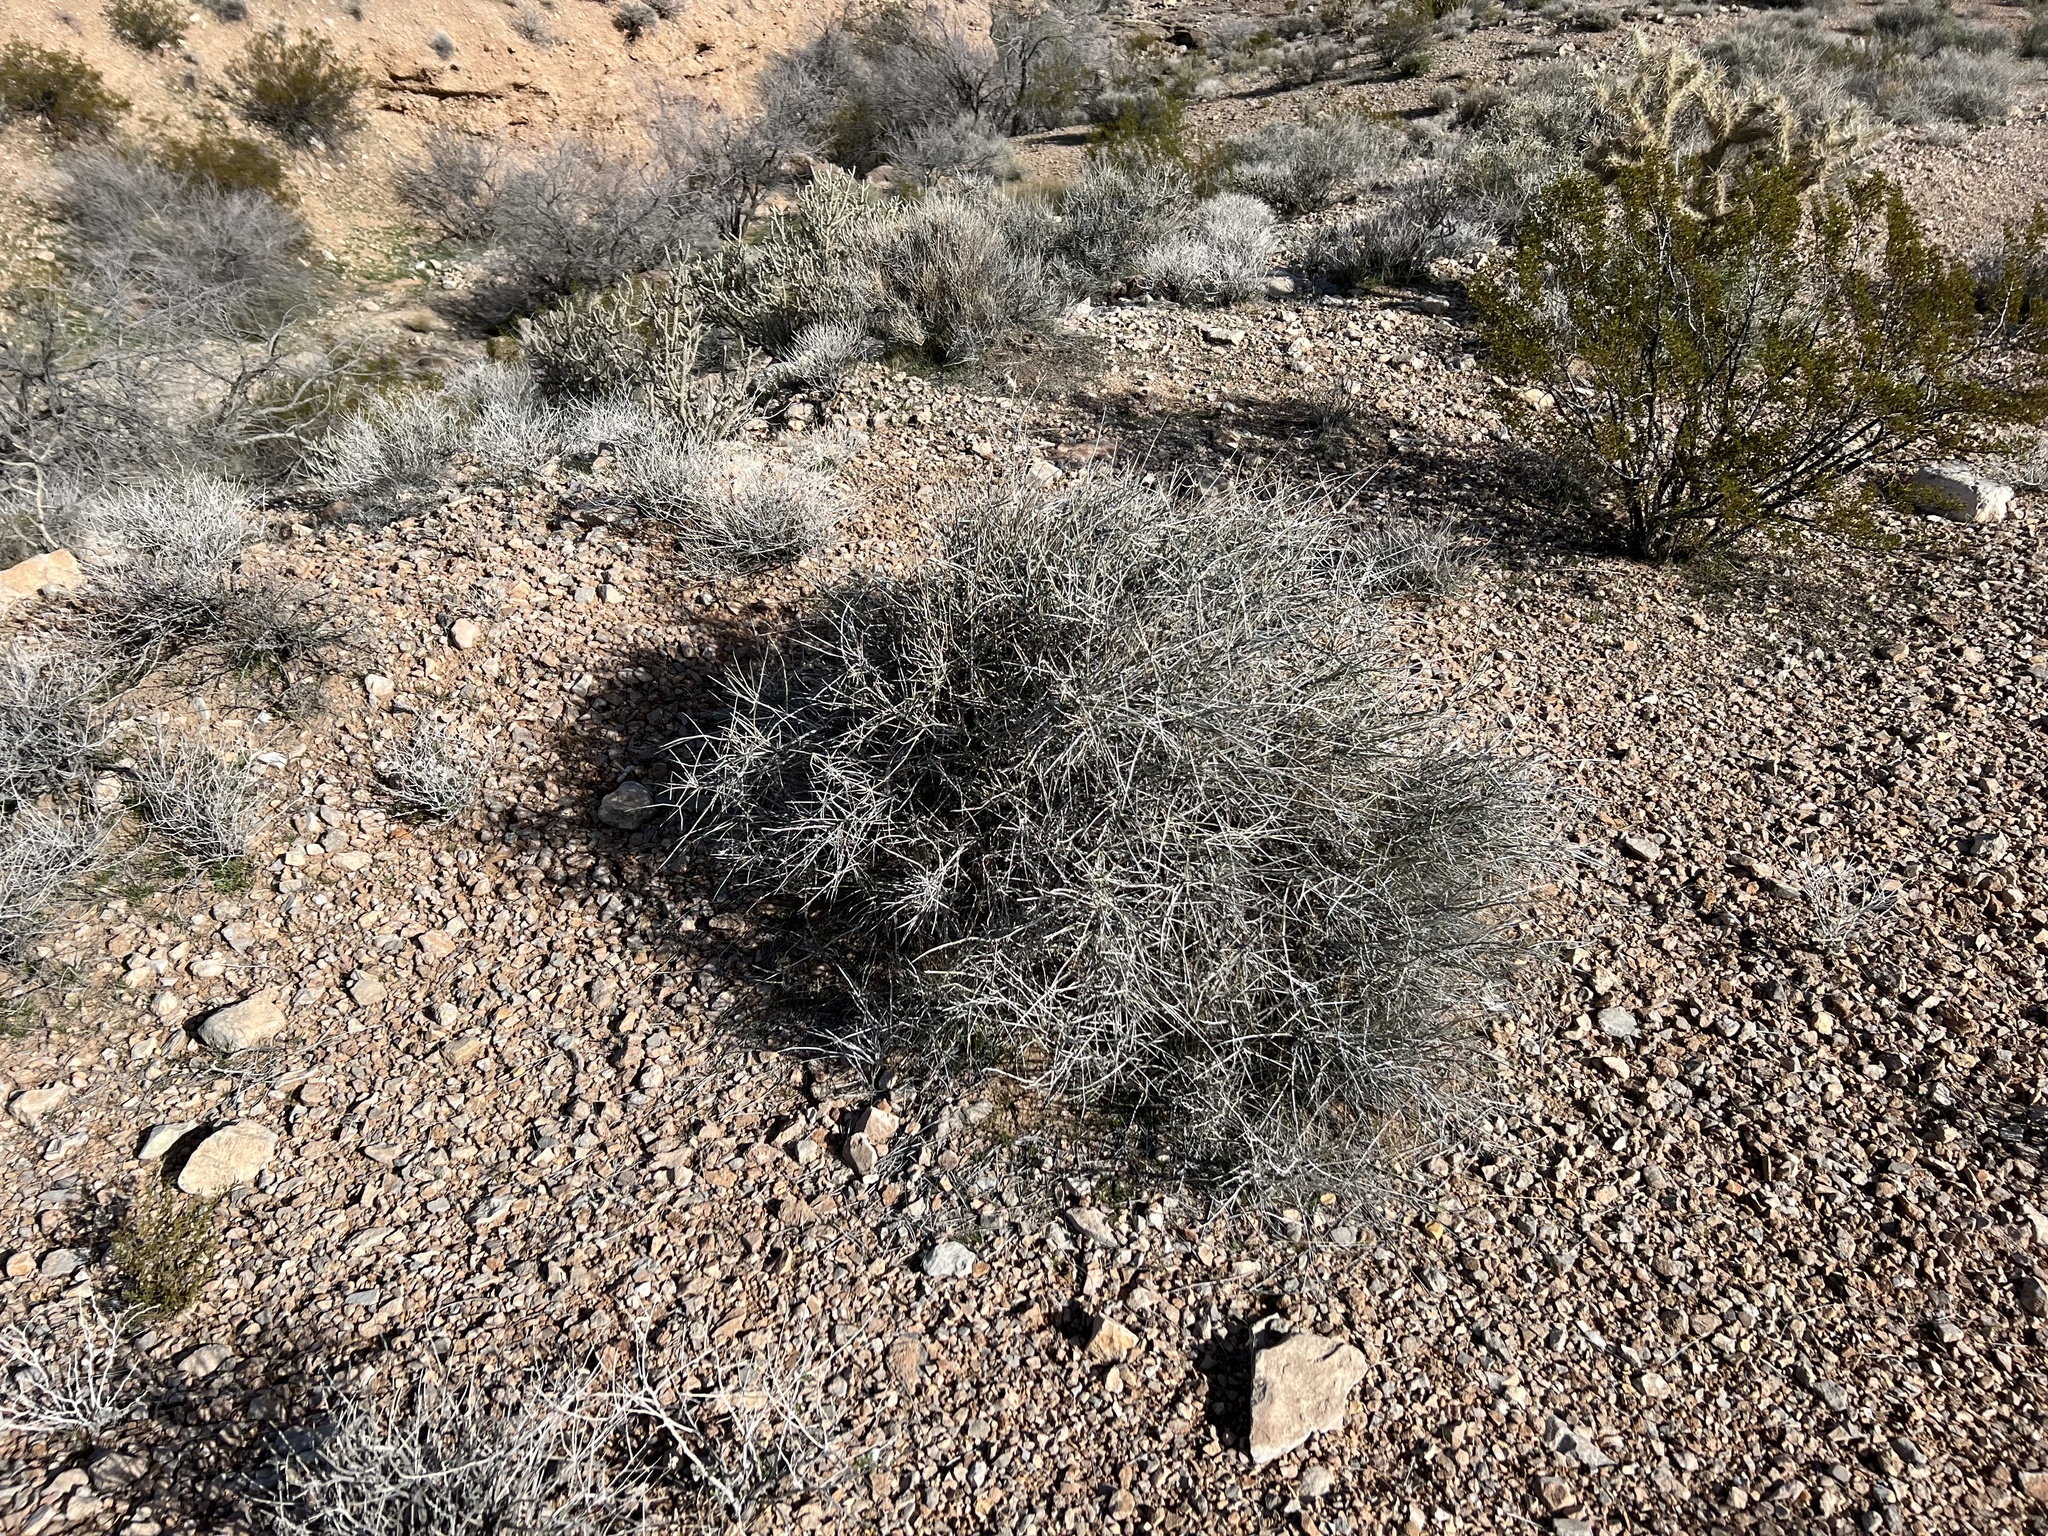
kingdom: Plantae
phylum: Tracheophyta
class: Gnetopsida
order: Ephedrales
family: Ephedraceae
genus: Ephedra
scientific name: Ephedra nevadensis
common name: Gray ephedra
